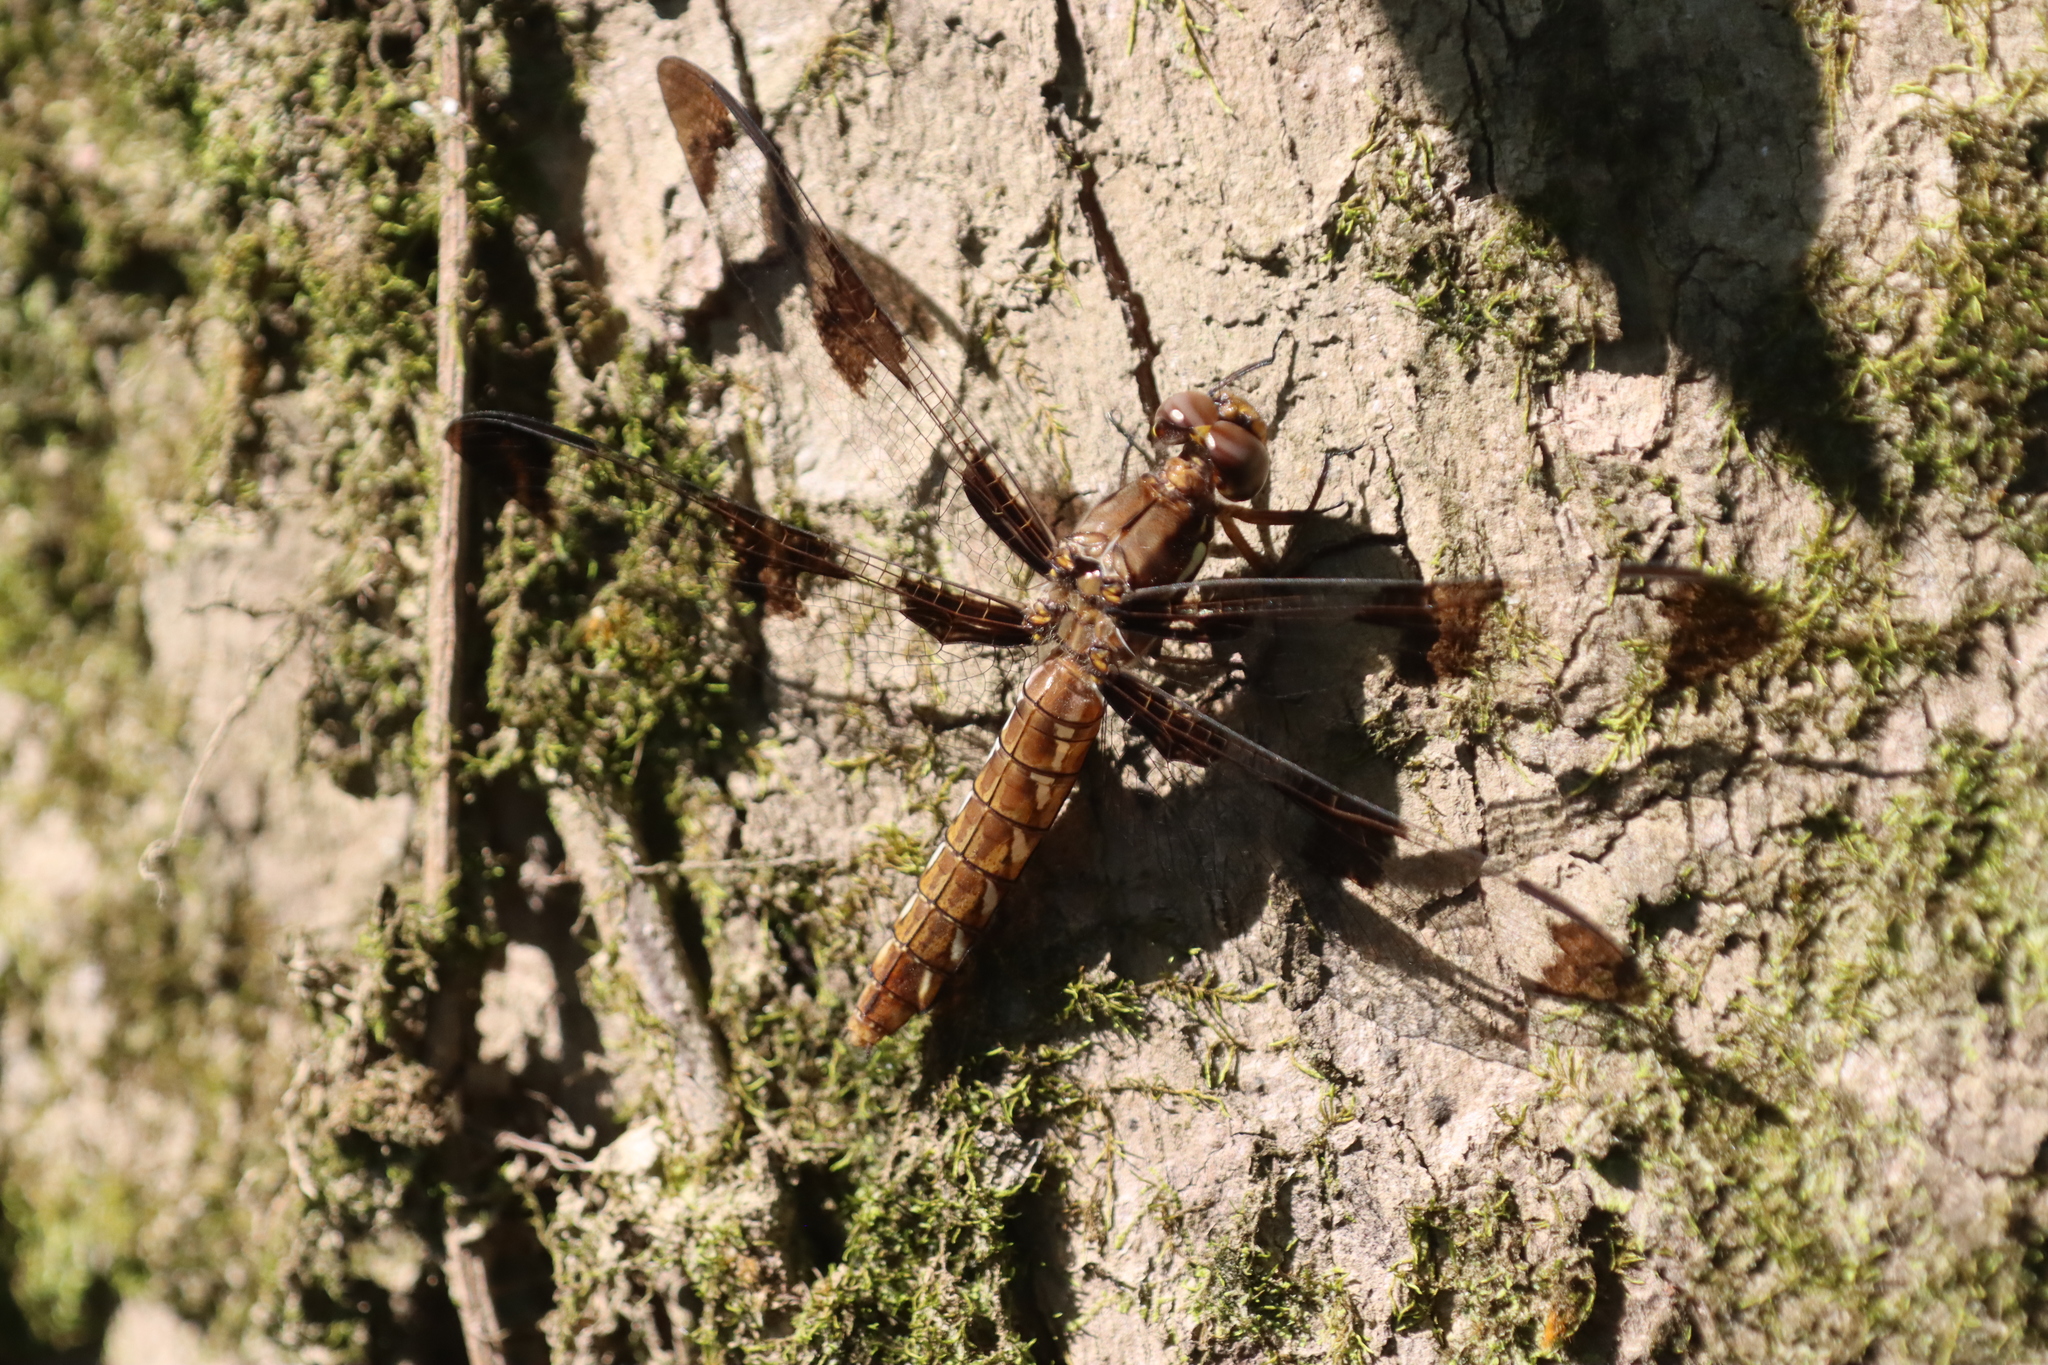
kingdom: Animalia
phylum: Arthropoda
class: Insecta
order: Odonata
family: Libellulidae
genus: Plathemis
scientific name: Plathemis lydia
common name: Common whitetail
